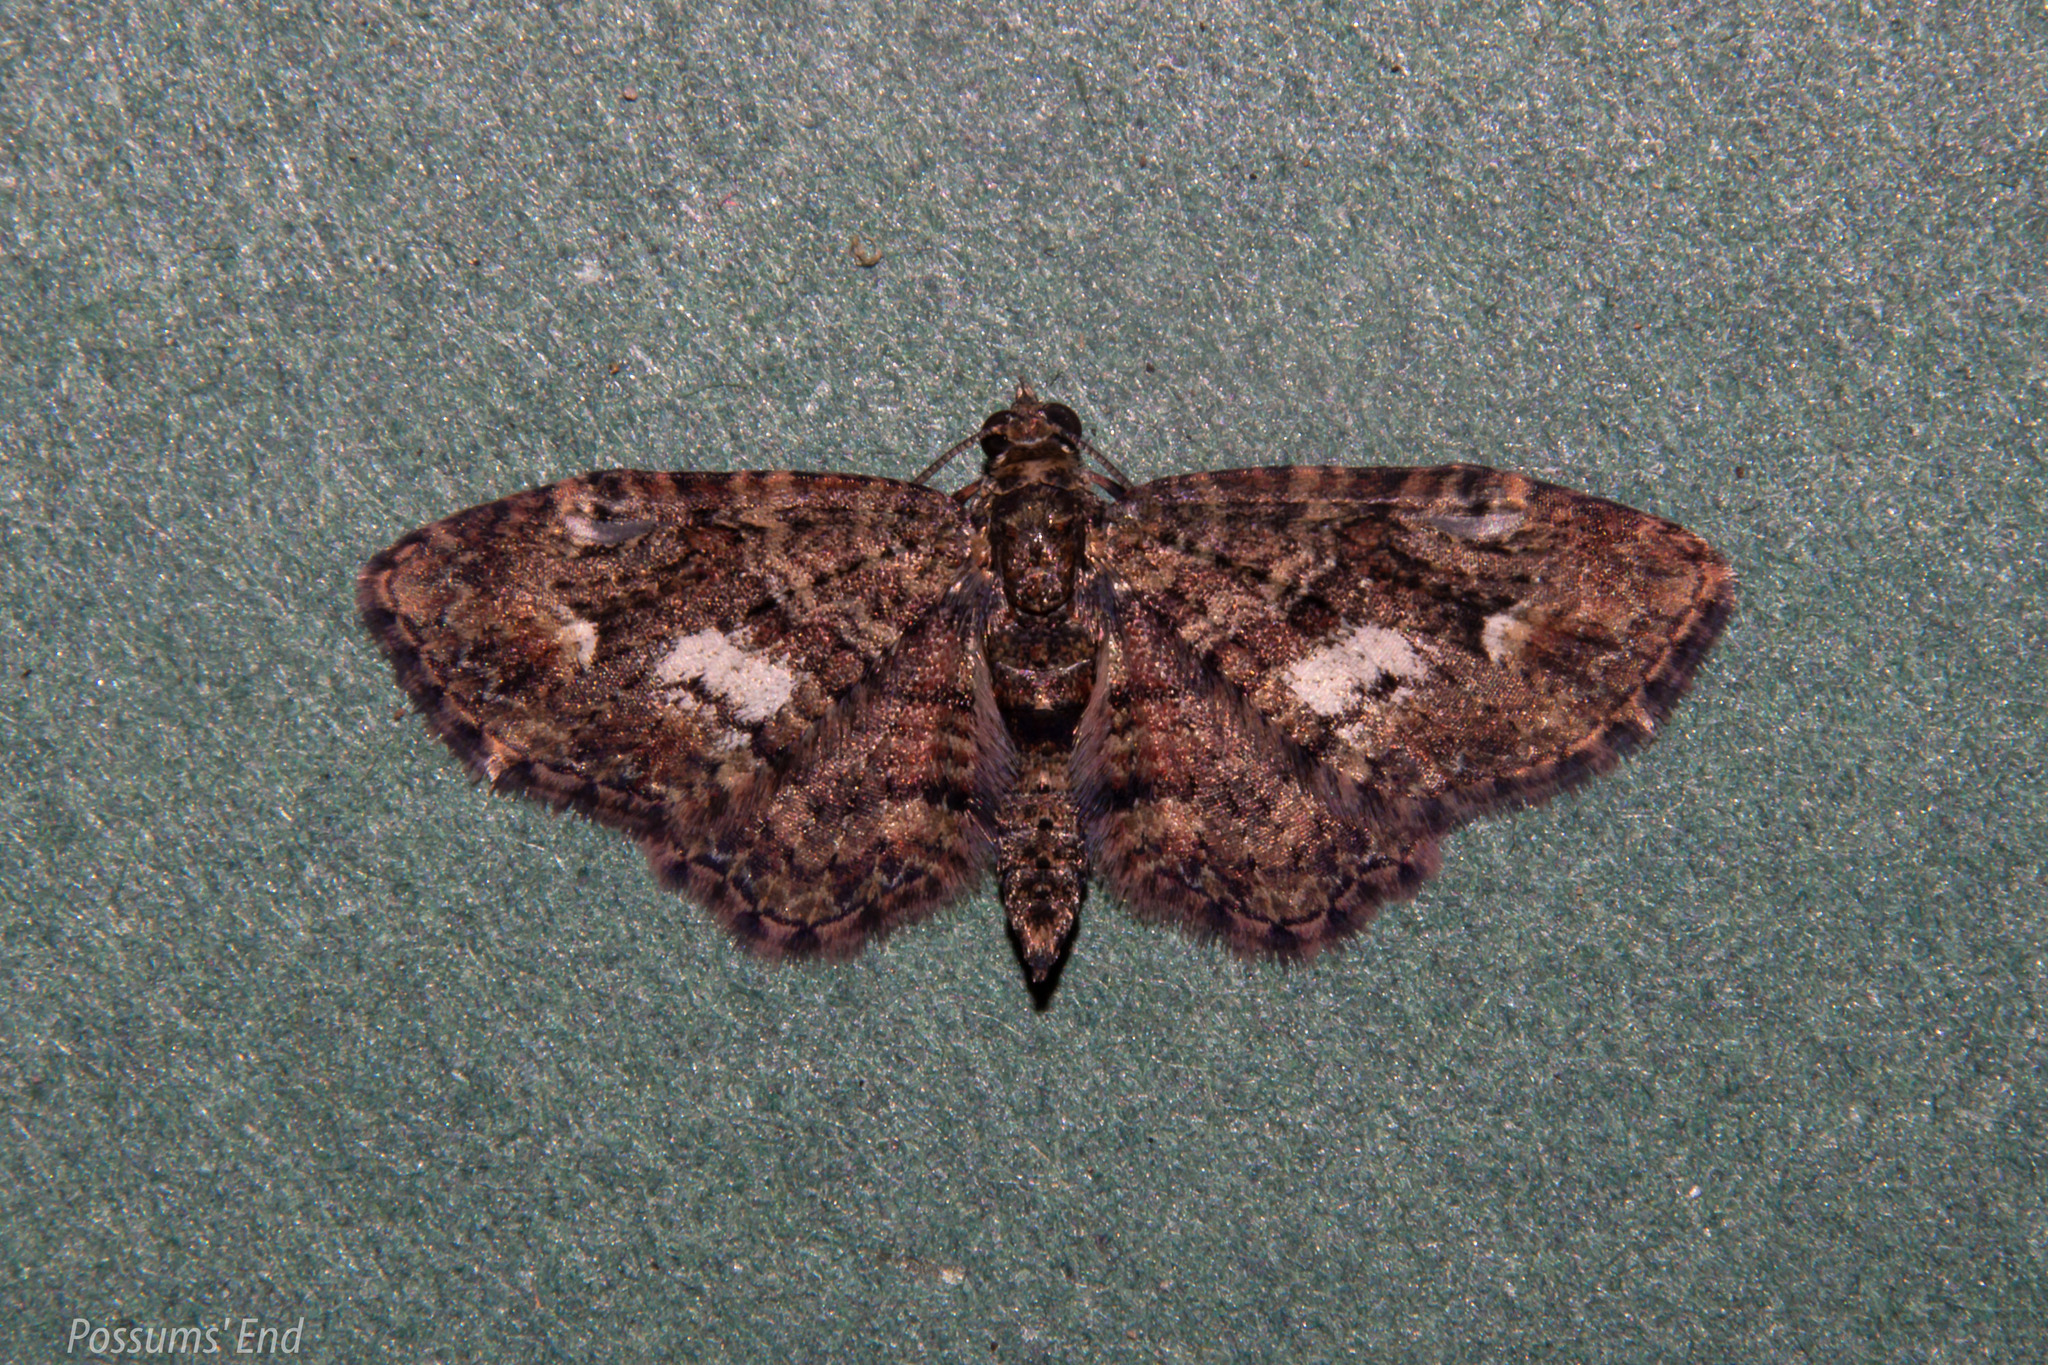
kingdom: Animalia
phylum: Arthropoda
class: Insecta
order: Lepidoptera
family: Geometridae
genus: Pasiphilodes
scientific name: Pasiphilodes testulata
